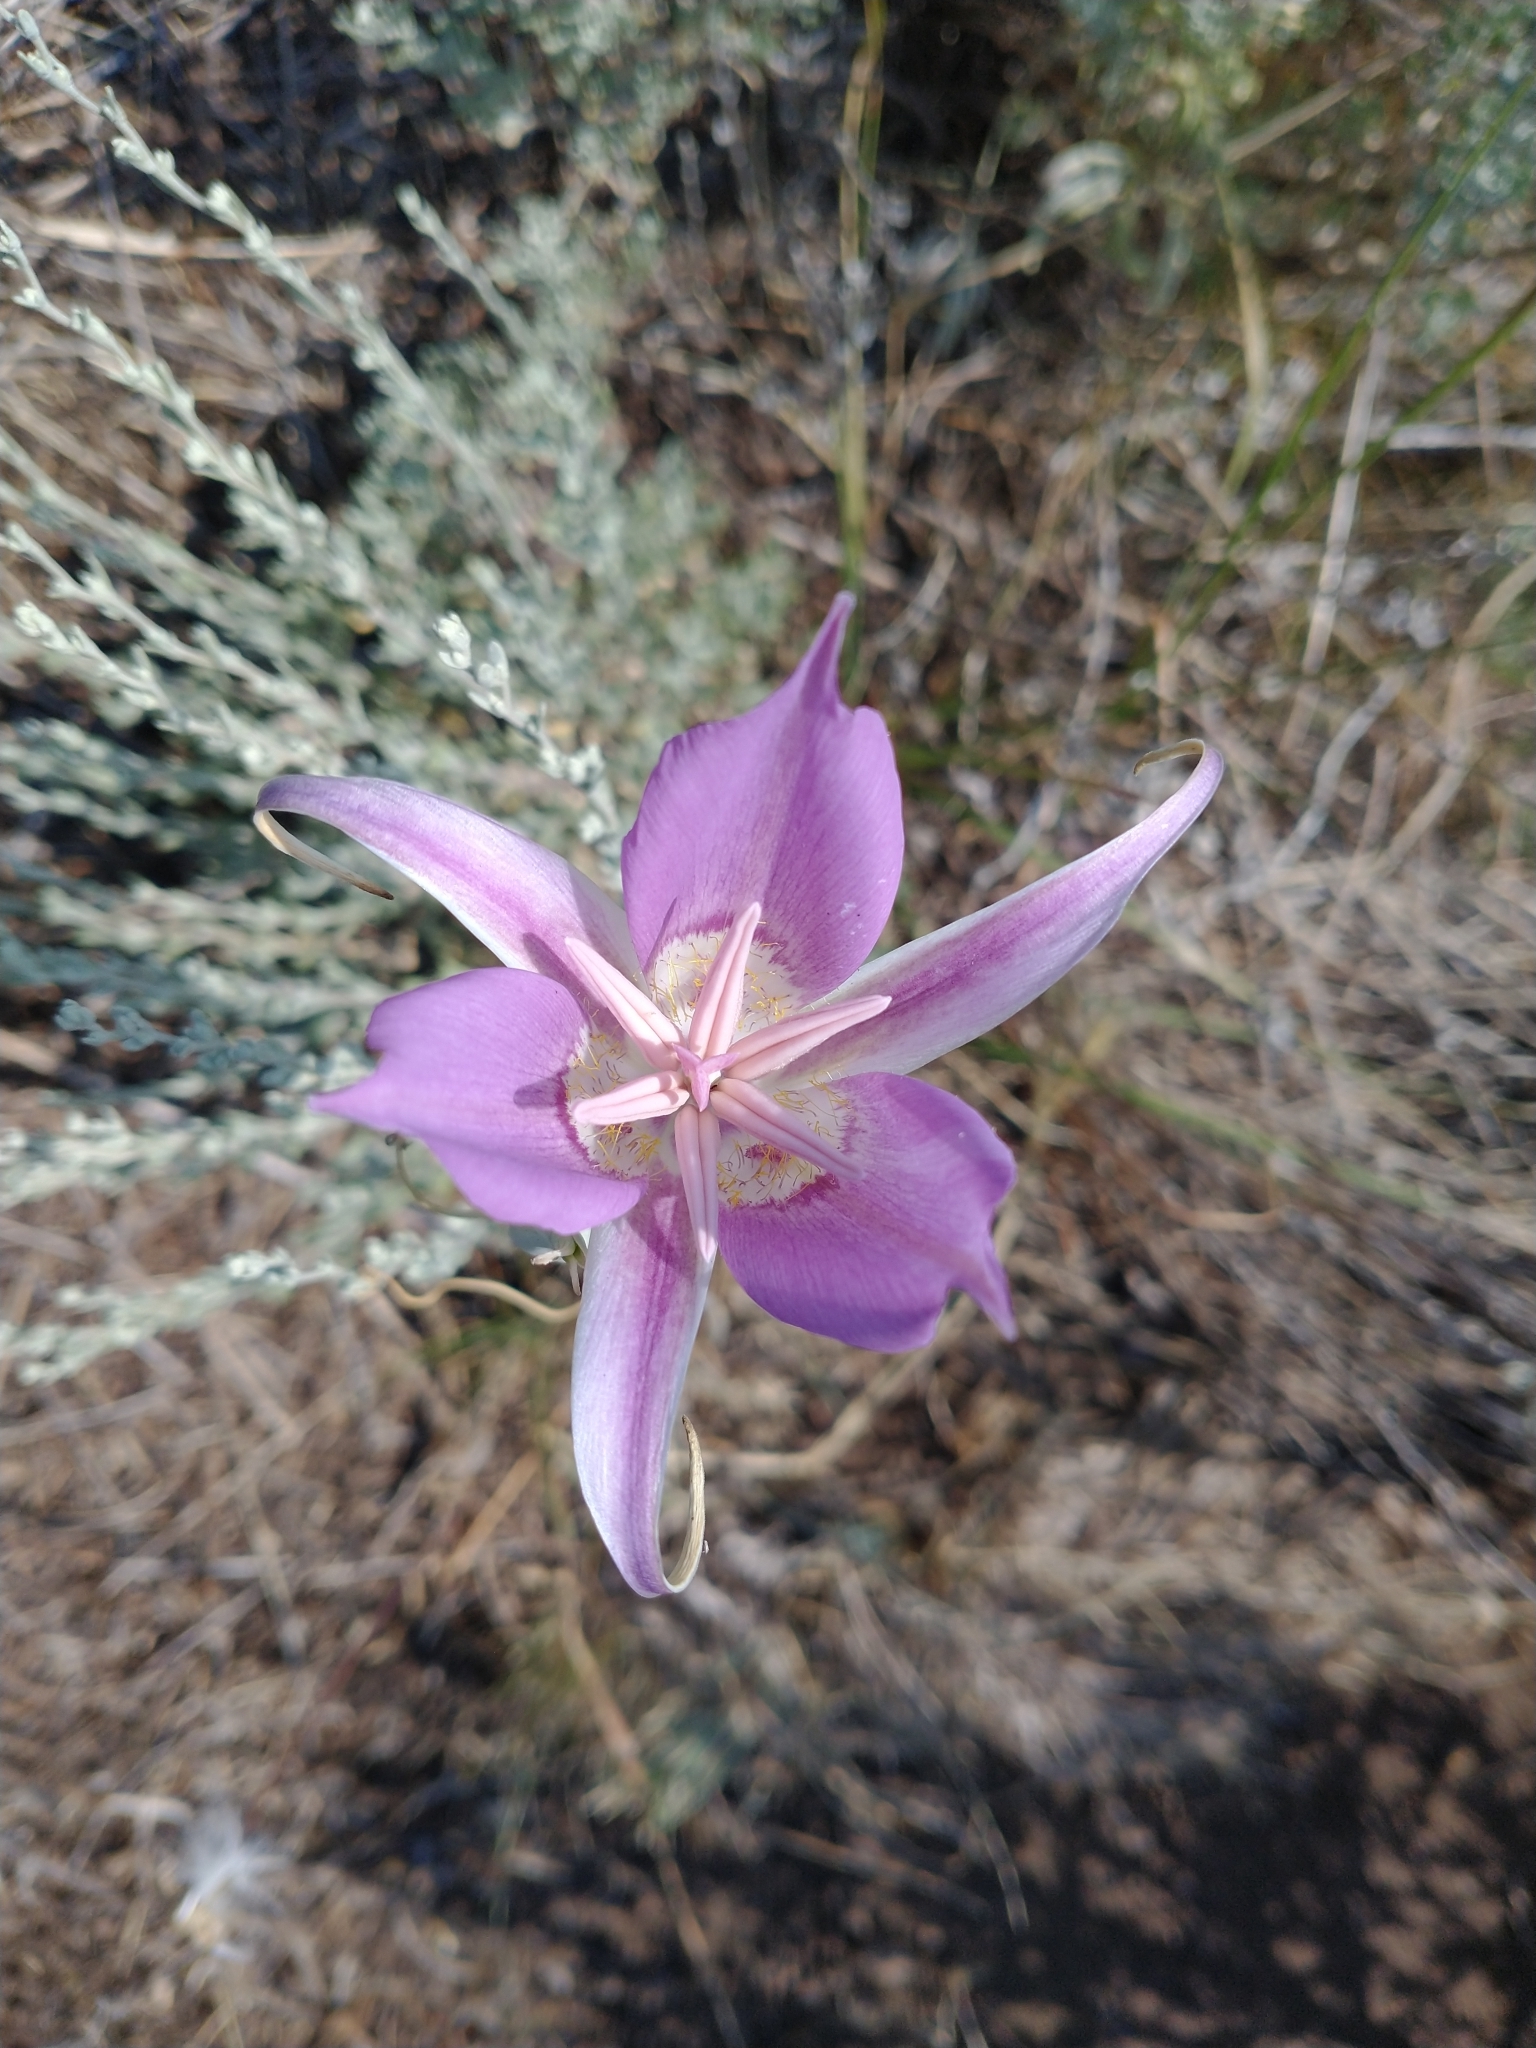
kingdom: Plantae
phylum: Tracheophyta
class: Liliopsida
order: Liliales
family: Liliaceae
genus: Calochortus
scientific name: Calochortus macrocarpus
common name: Green-band mariposa lily
